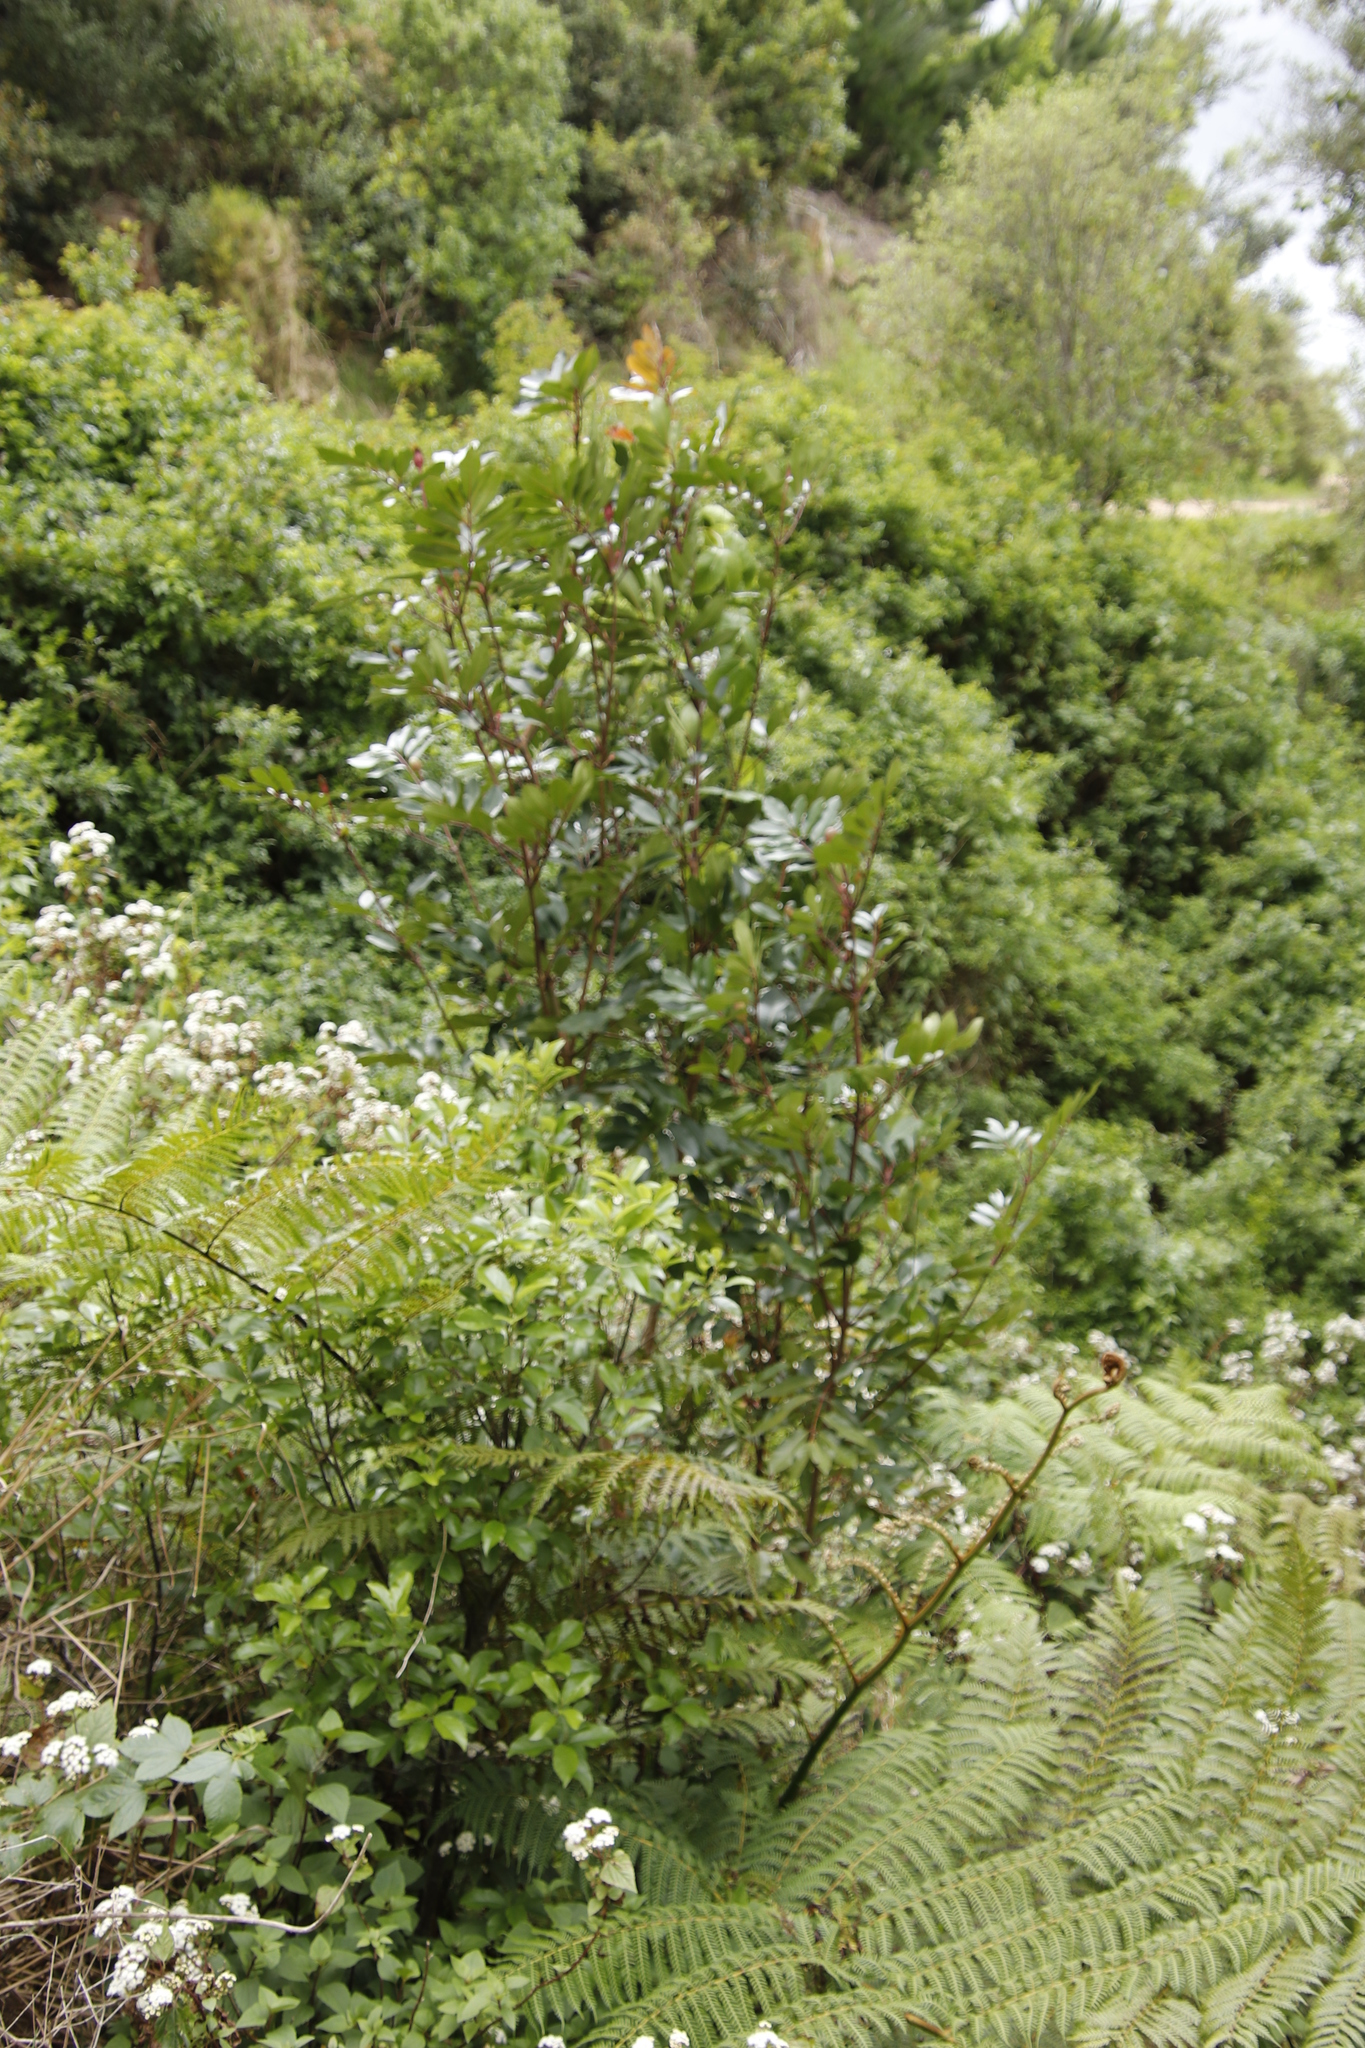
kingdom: Plantae
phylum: Tracheophyta
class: Magnoliopsida
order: Oxalidales
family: Cunoniaceae
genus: Cunonia
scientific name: Cunonia capensis
